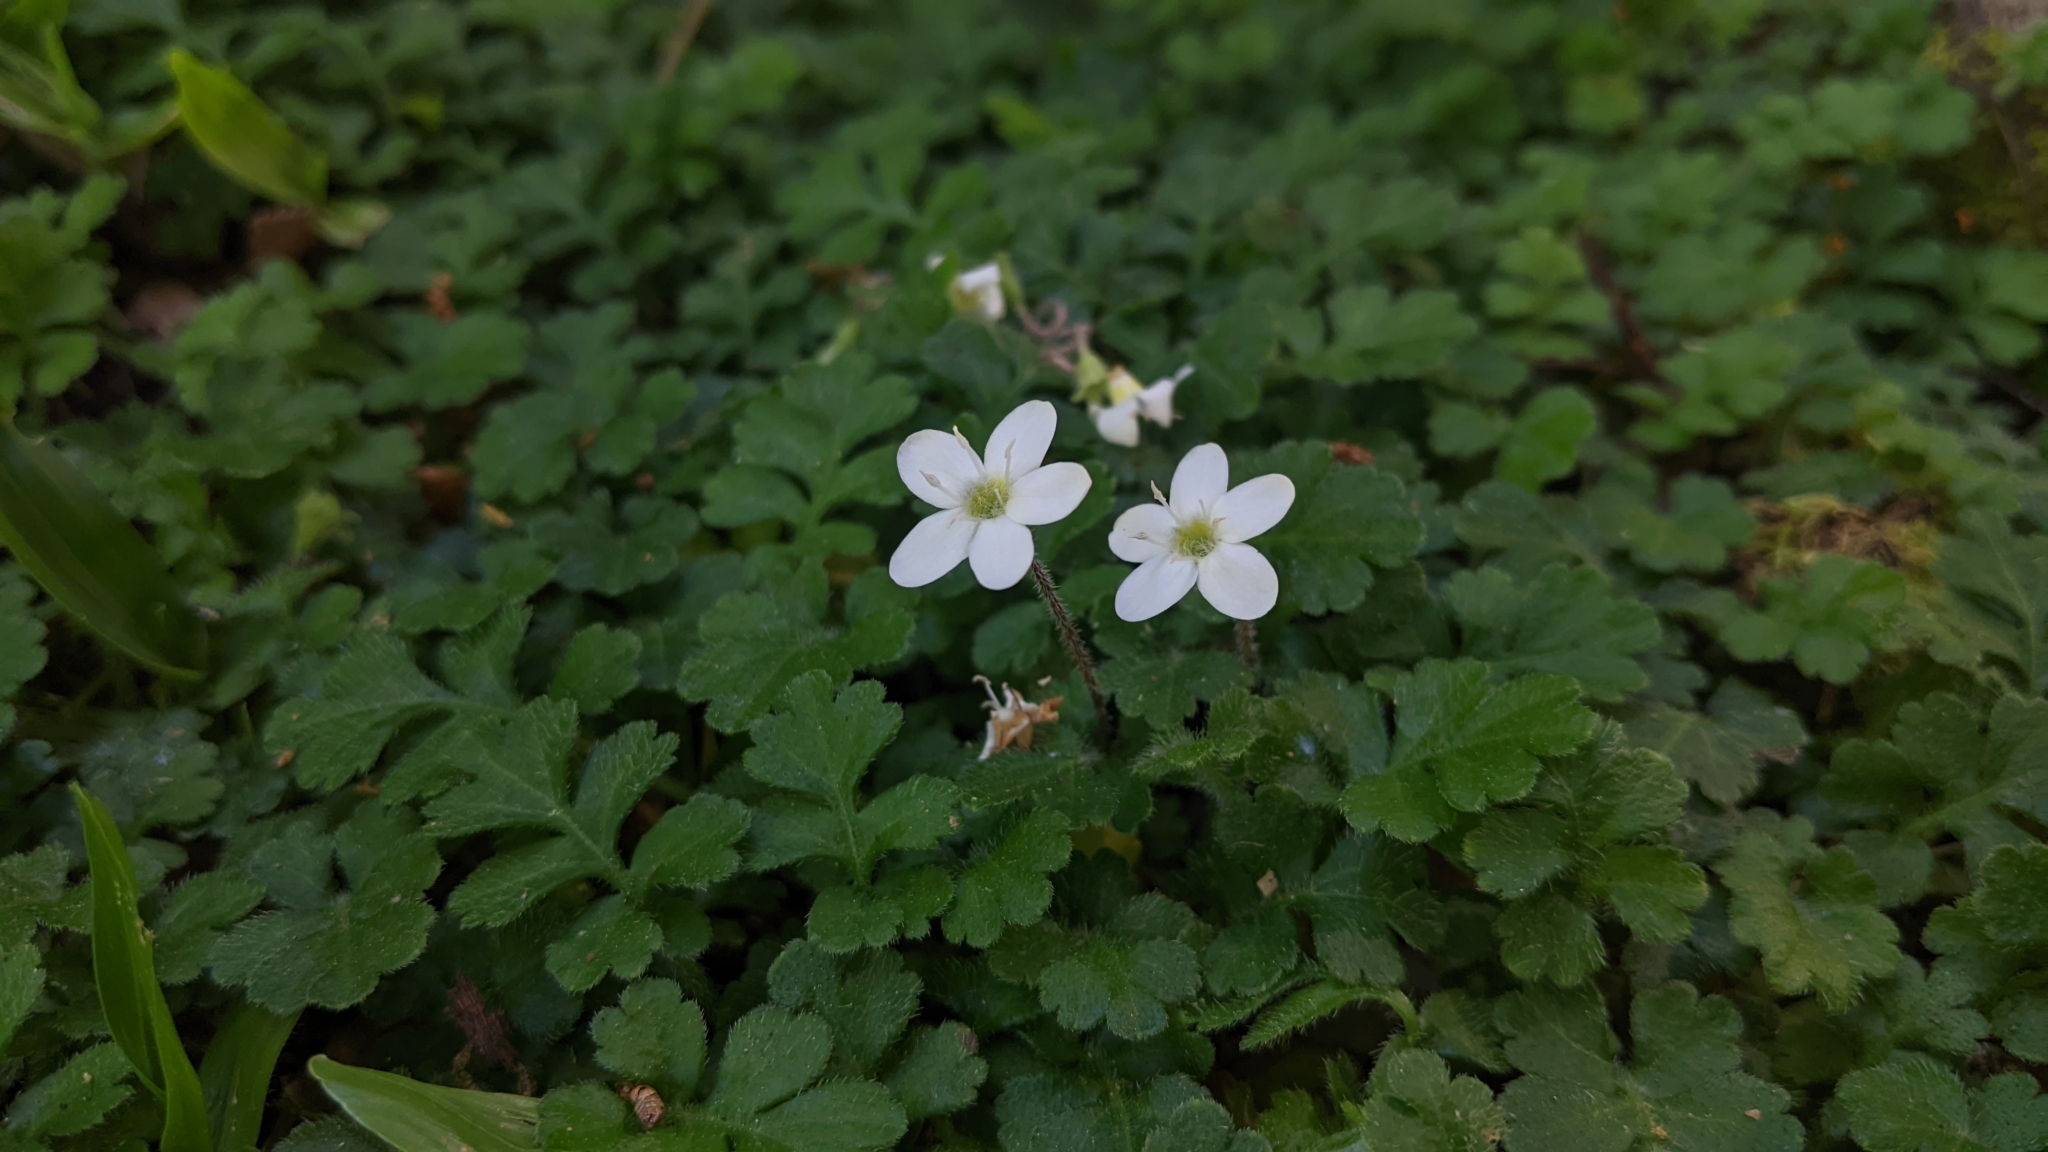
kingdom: Plantae
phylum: Tracheophyta
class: Magnoliopsida
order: Lamiales
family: Plantaginaceae
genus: Ellisiophyllum
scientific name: Ellisiophyllum pinnatum
